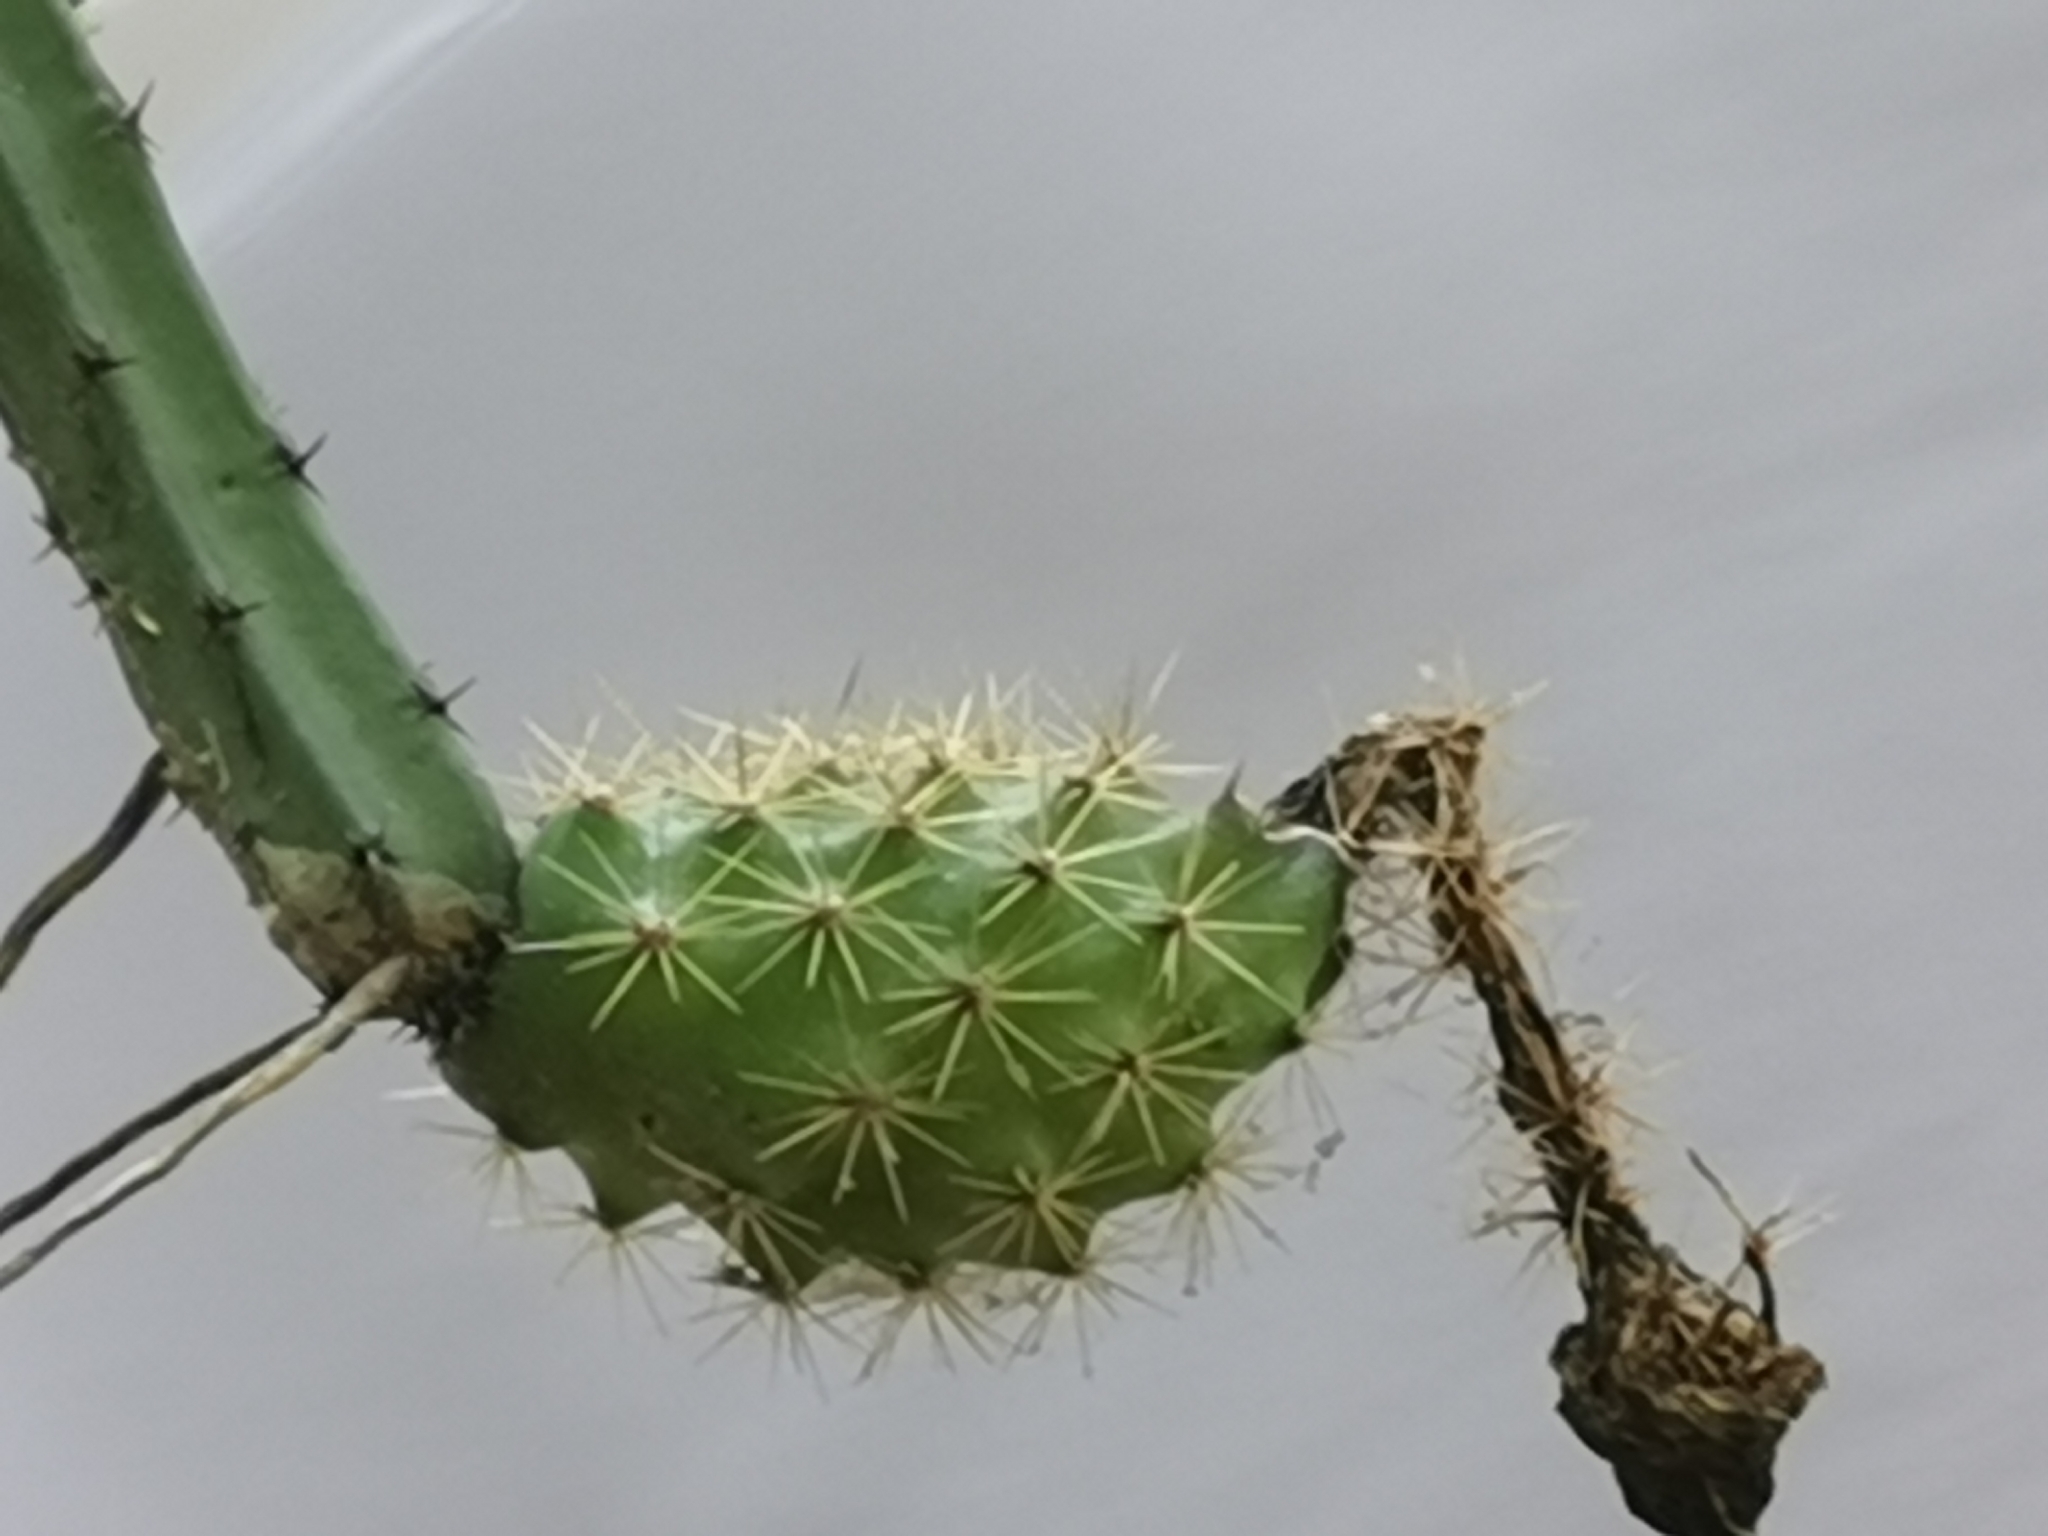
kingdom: Plantae
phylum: Tracheophyta
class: Magnoliopsida
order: Caryophyllales
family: Cactaceae
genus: Selenicereus
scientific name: Selenicereus spinulosus
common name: Nightblooming cereus
